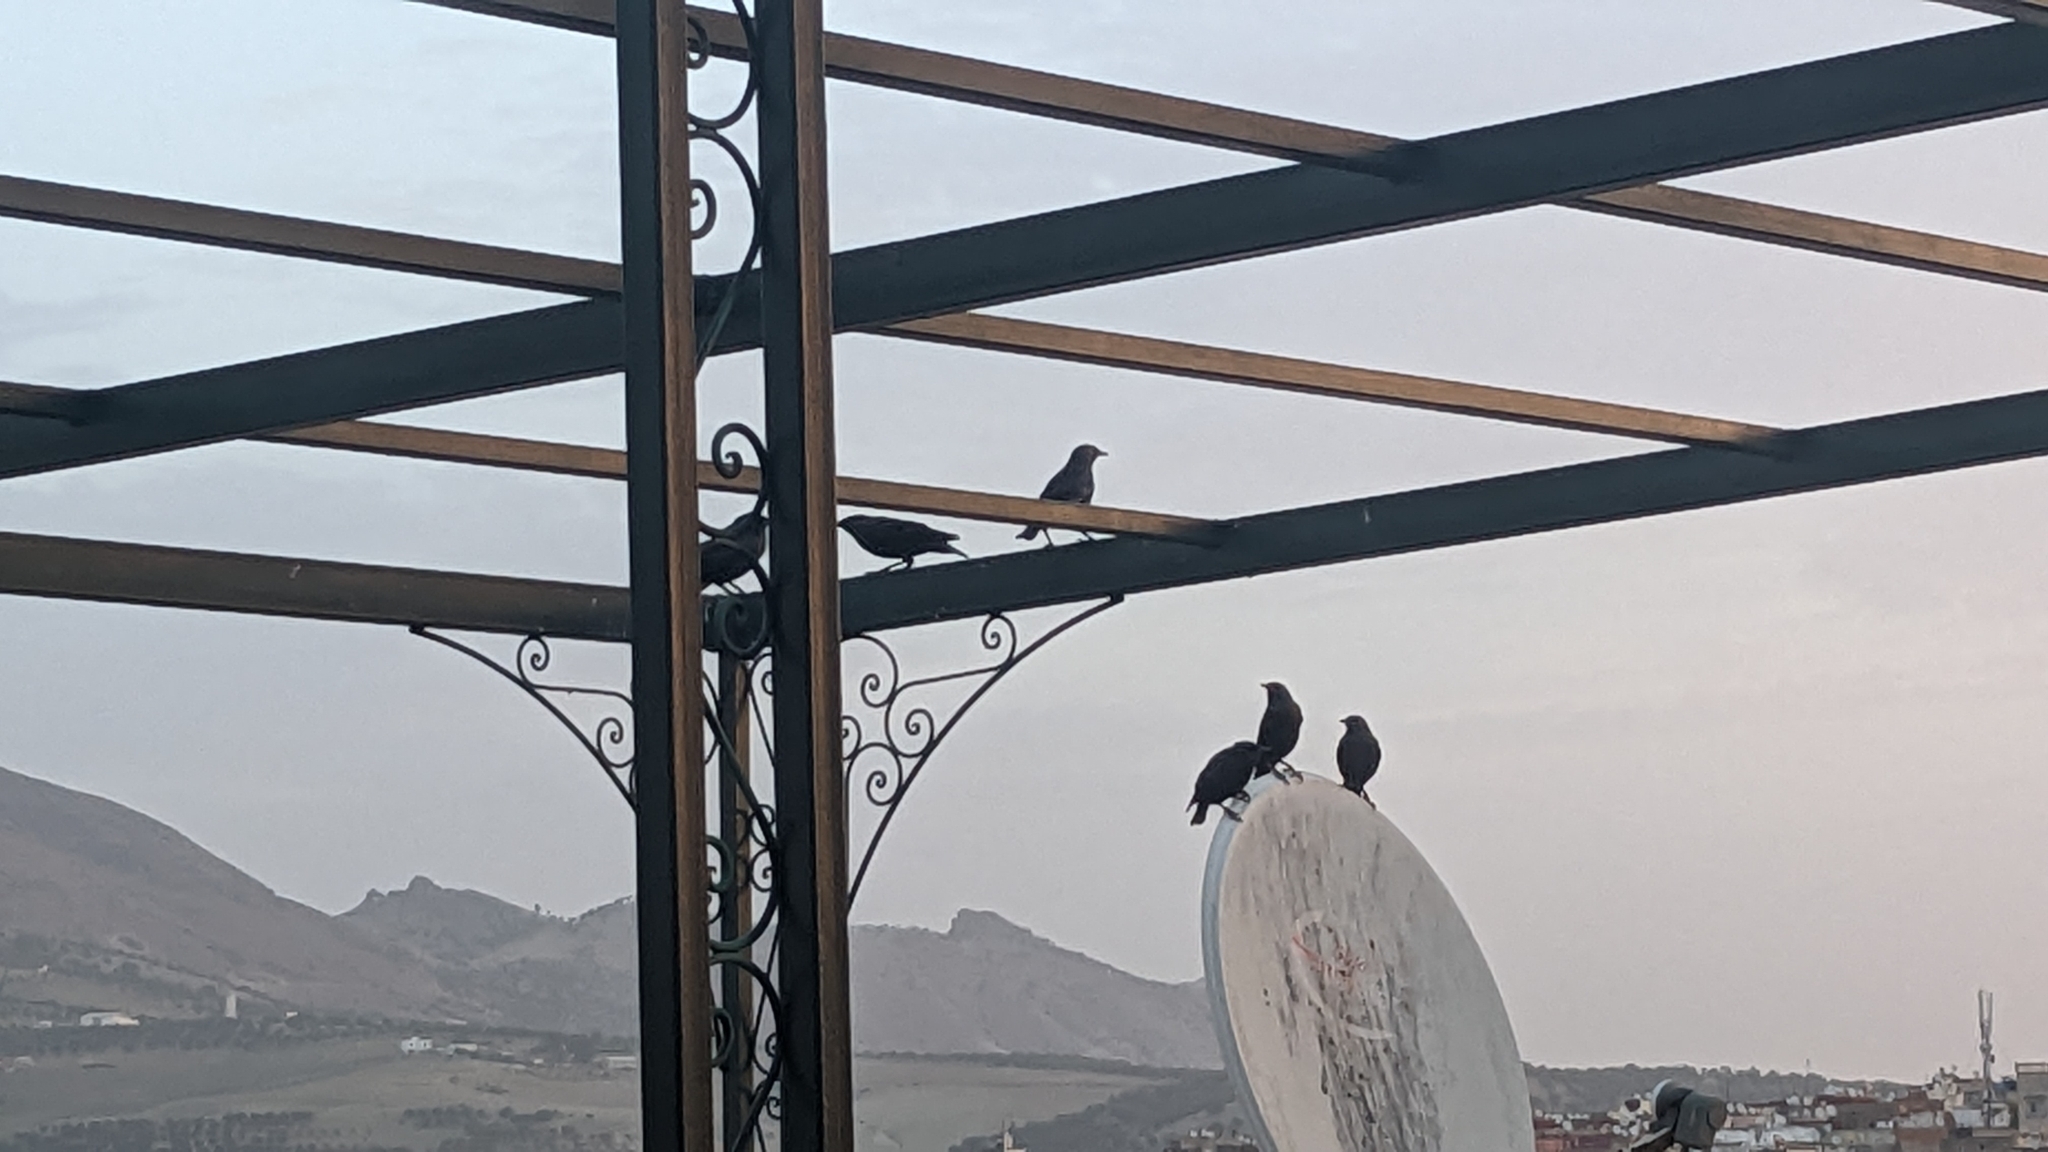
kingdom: Animalia
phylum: Chordata
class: Aves
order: Passeriformes
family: Sturnidae
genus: Sturnus
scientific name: Sturnus unicolor
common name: Spotless starling
